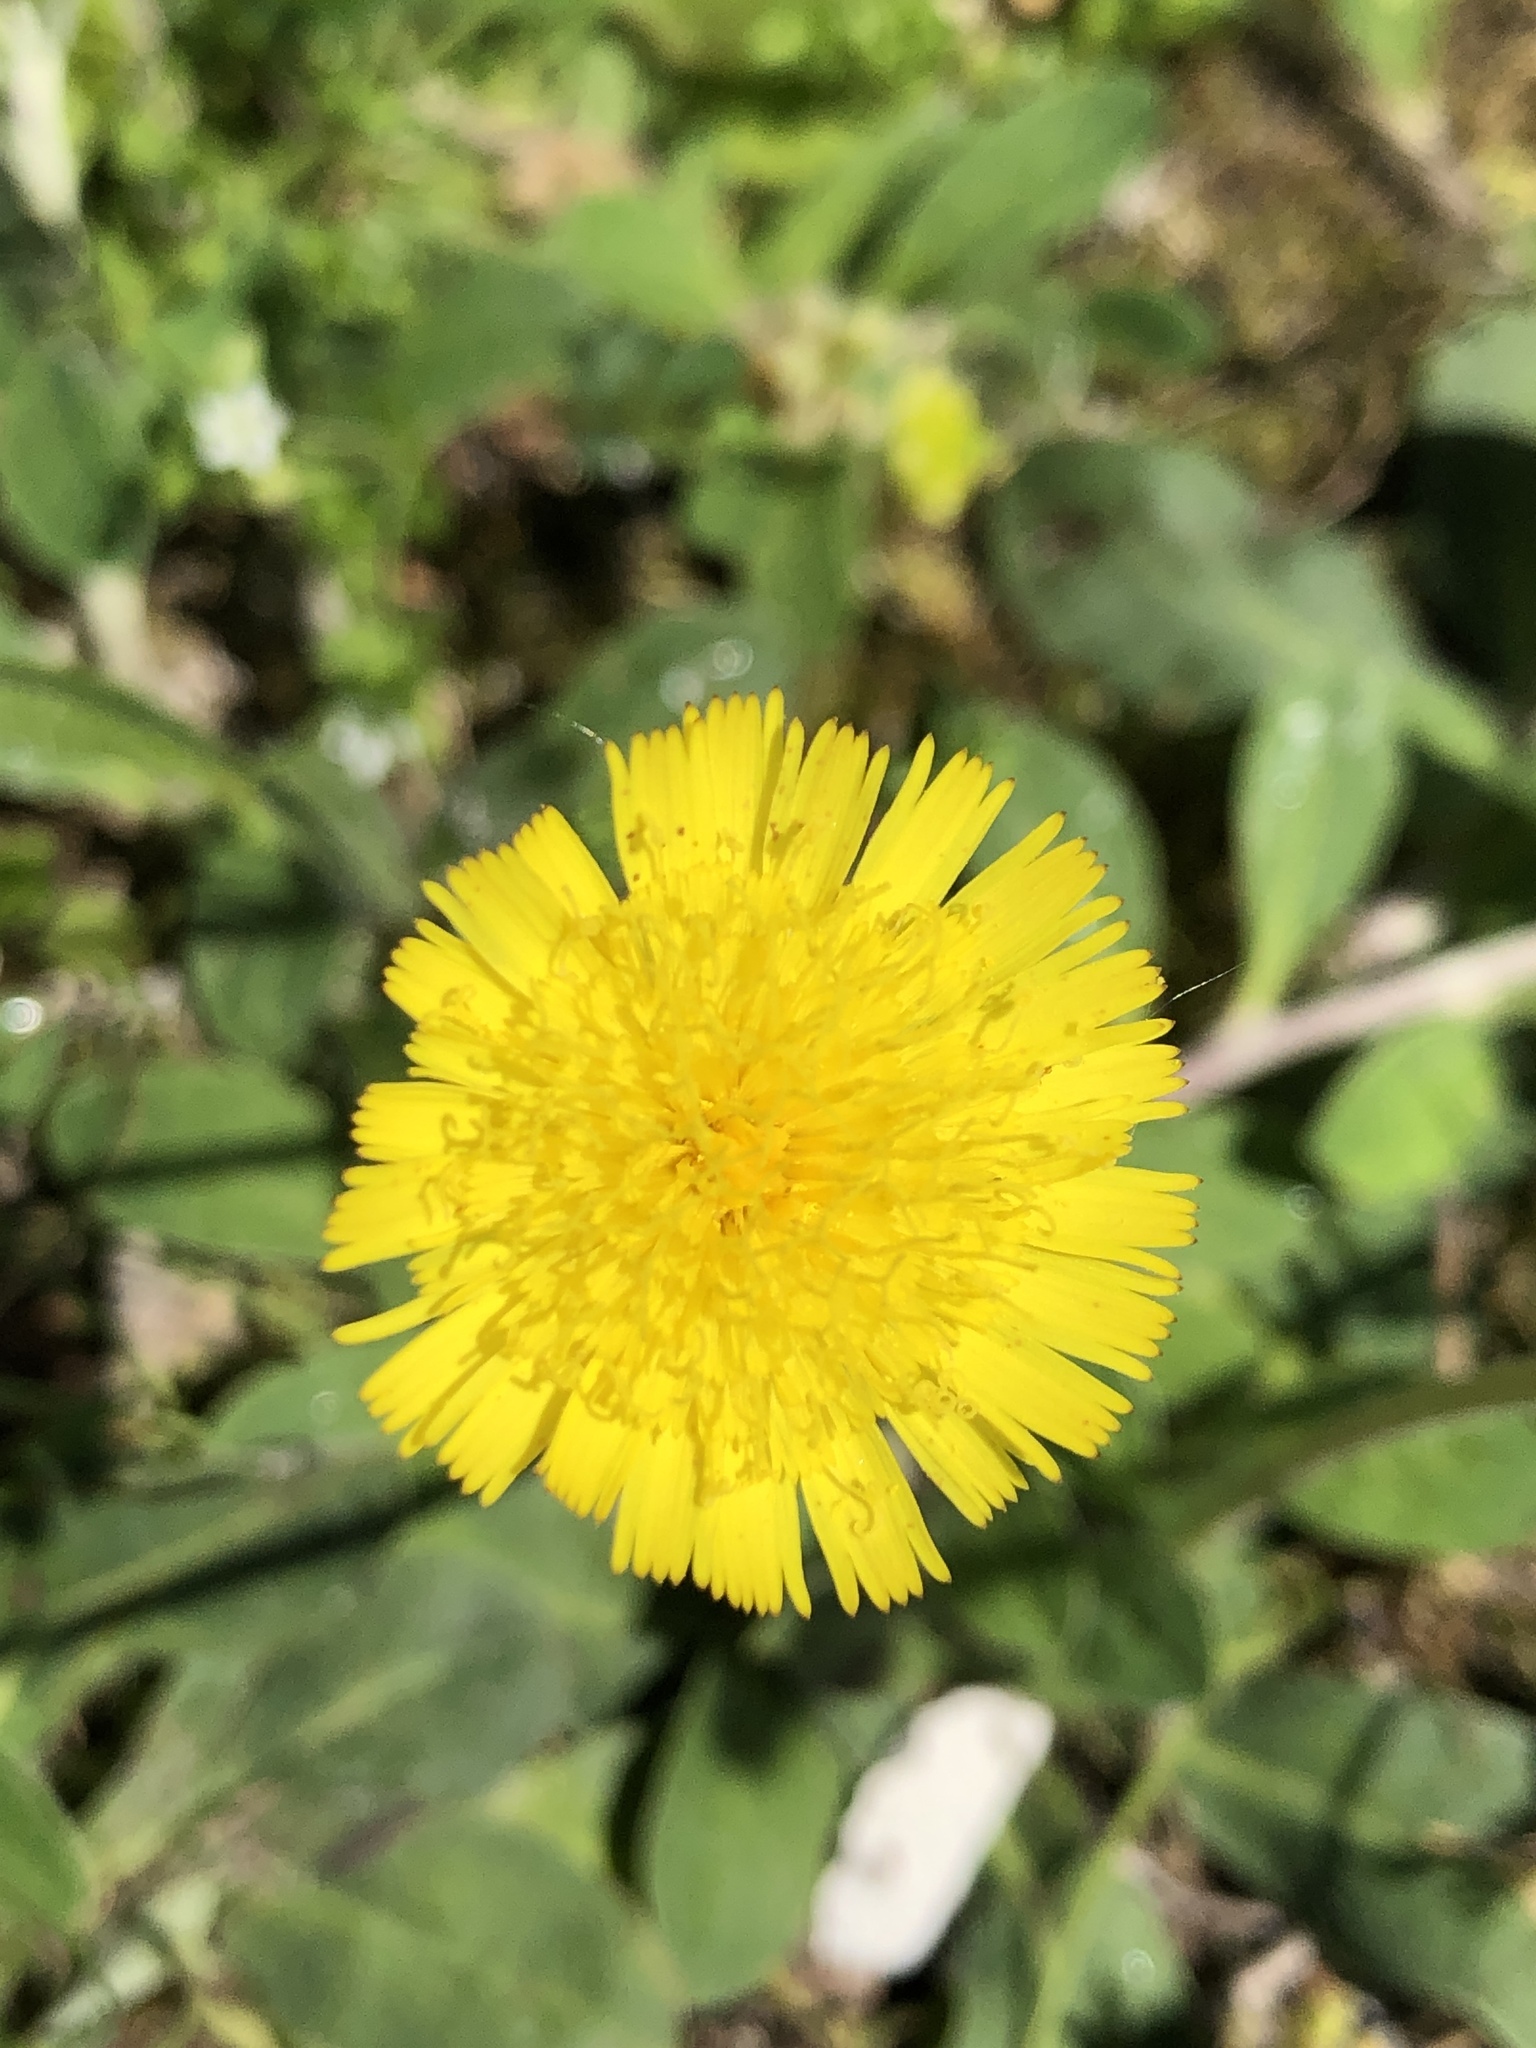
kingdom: Plantae
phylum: Tracheophyta
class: Magnoliopsida
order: Asterales
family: Asteraceae
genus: Pilosella
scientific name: Pilosella officinarum
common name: Mouse-ear hawkweed
